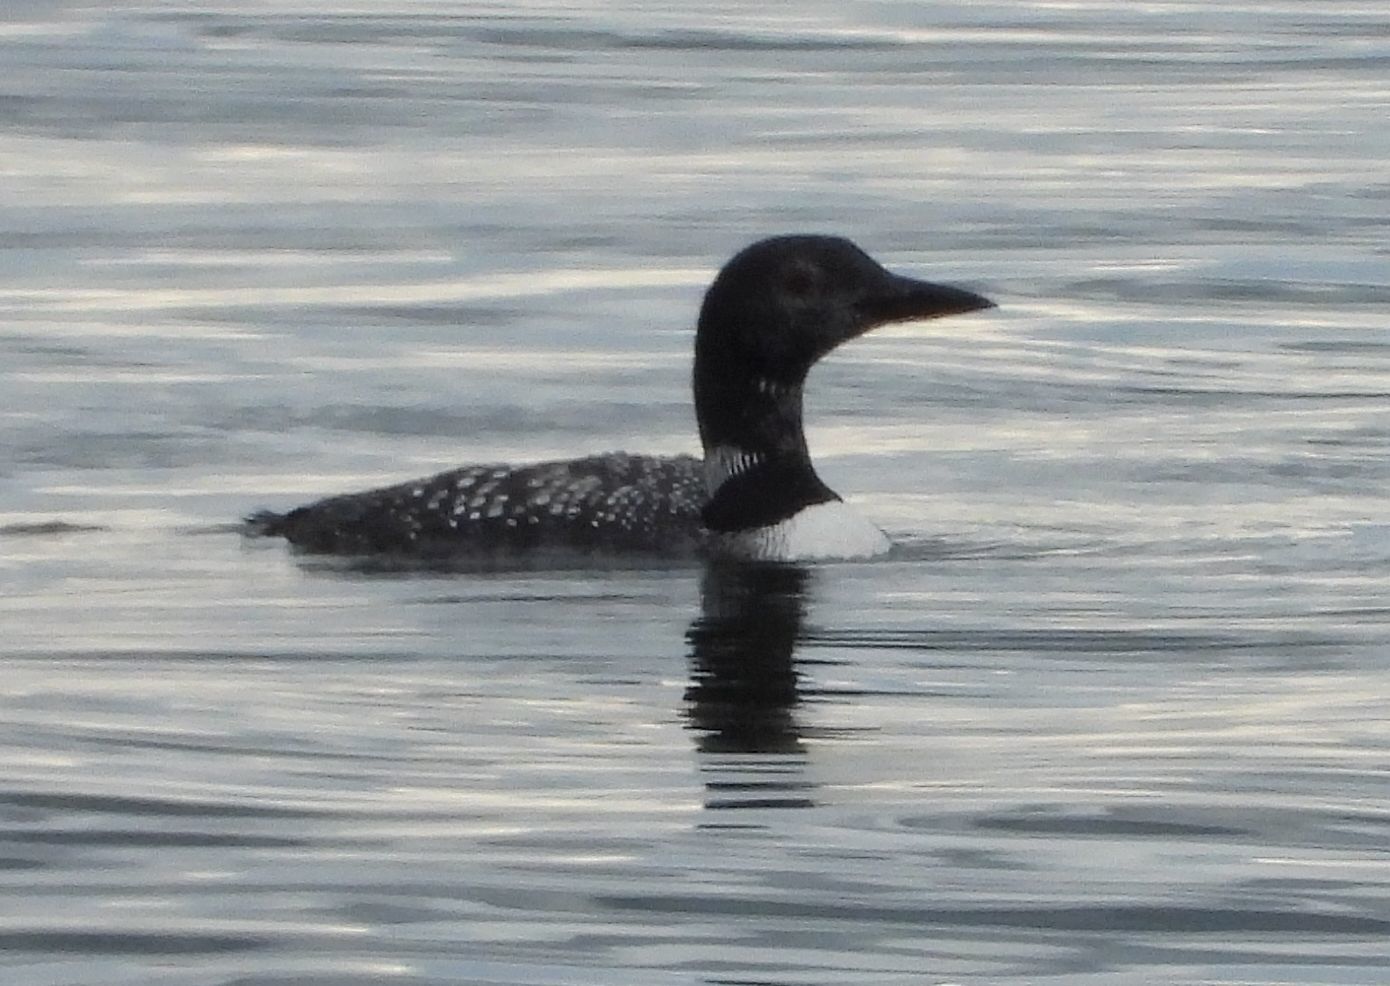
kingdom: Animalia
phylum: Chordata
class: Aves
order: Gaviiformes
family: Gaviidae
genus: Gavia
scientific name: Gavia immer
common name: Common loon
